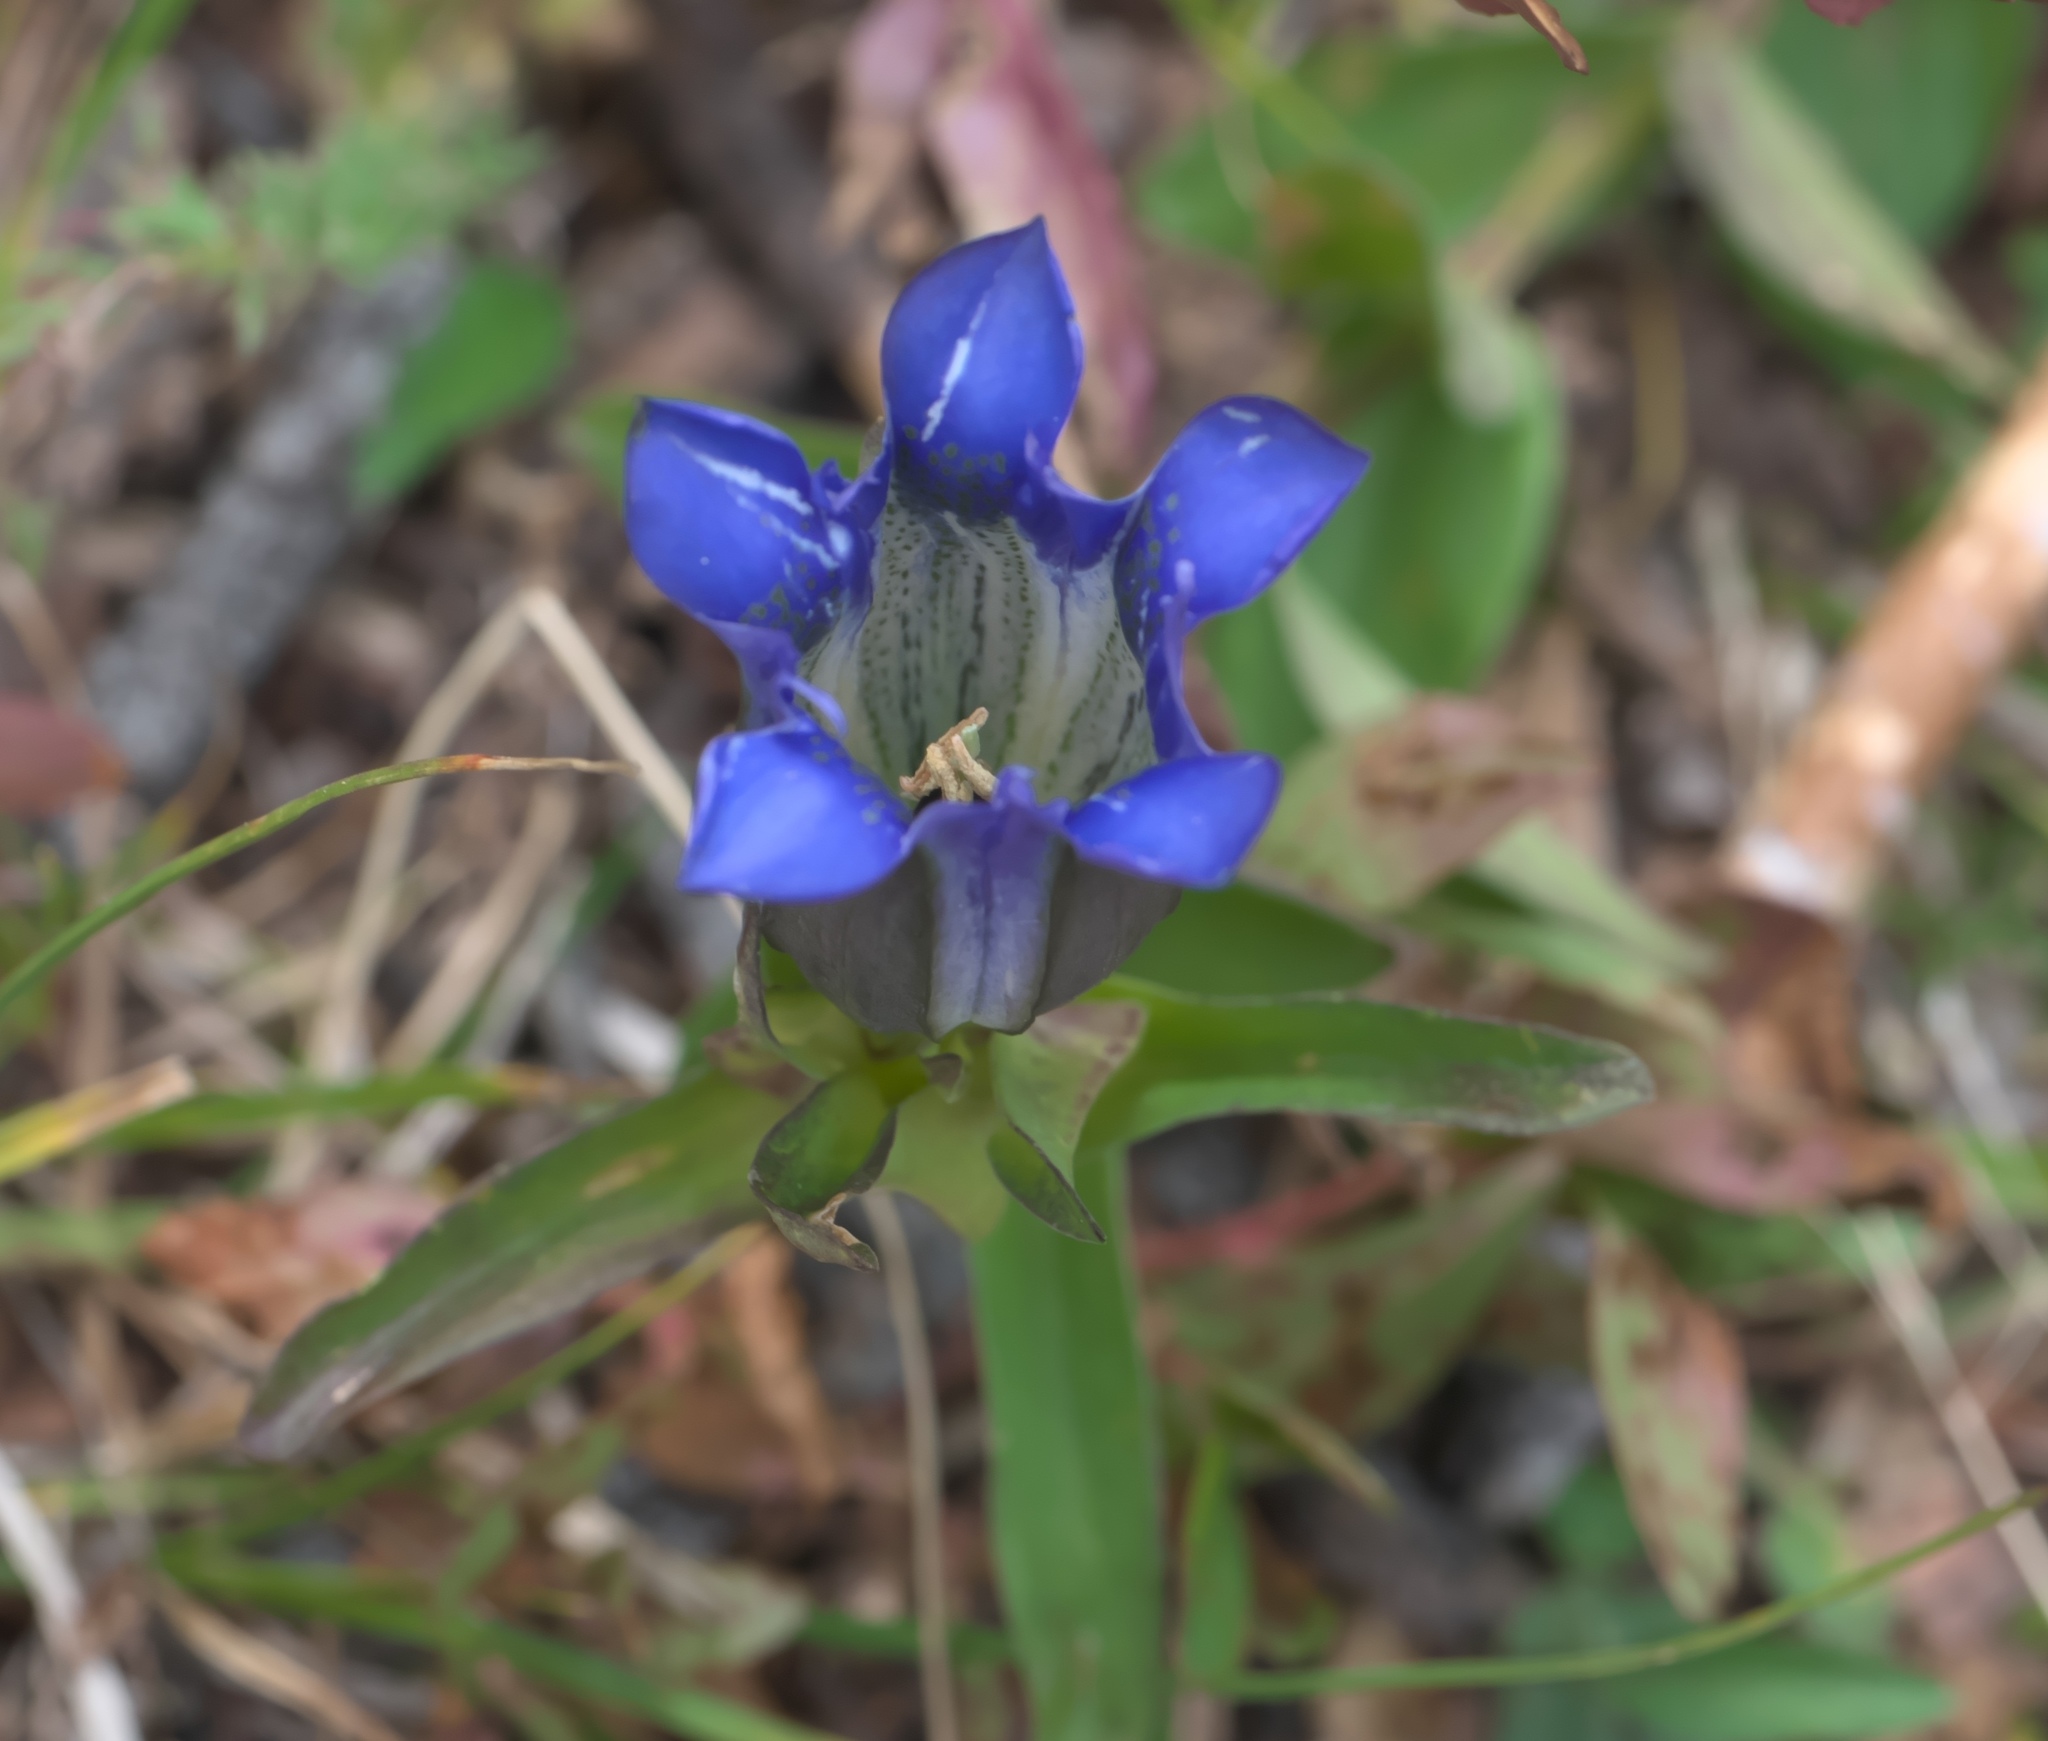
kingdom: Plantae
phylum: Tracheophyta
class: Magnoliopsida
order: Gentianales
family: Gentianaceae
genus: Gentiana
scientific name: Gentiana parryi
